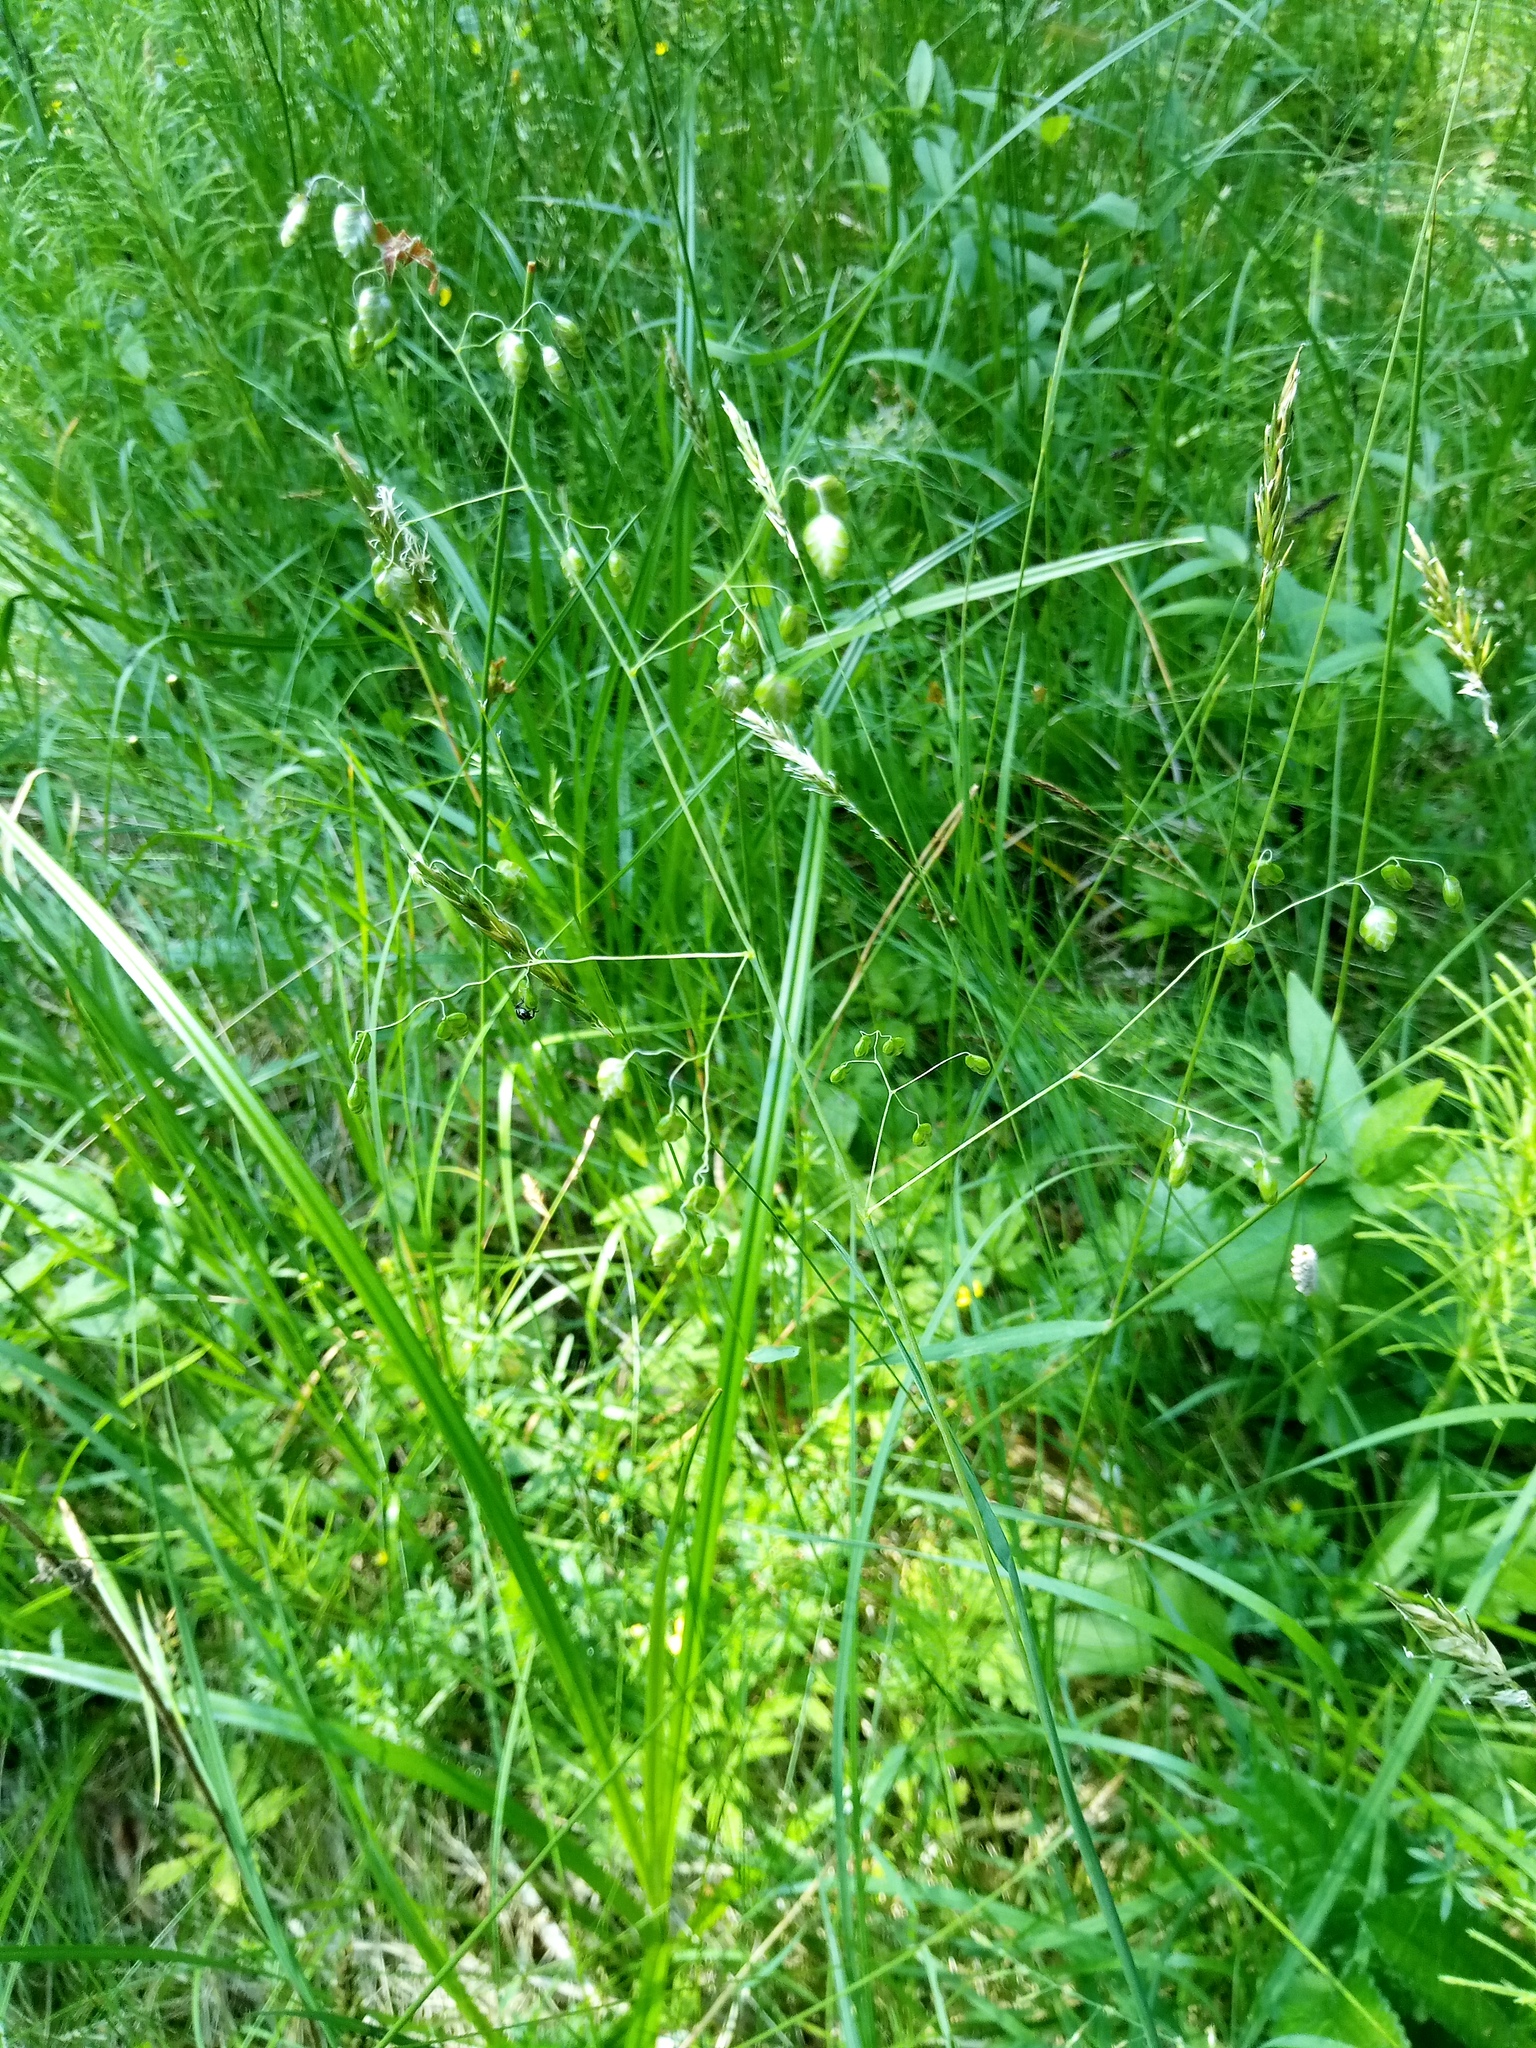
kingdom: Plantae
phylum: Tracheophyta
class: Liliopsida
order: Poales
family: Poaceae
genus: Briza
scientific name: Briza media
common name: Quaking grass
